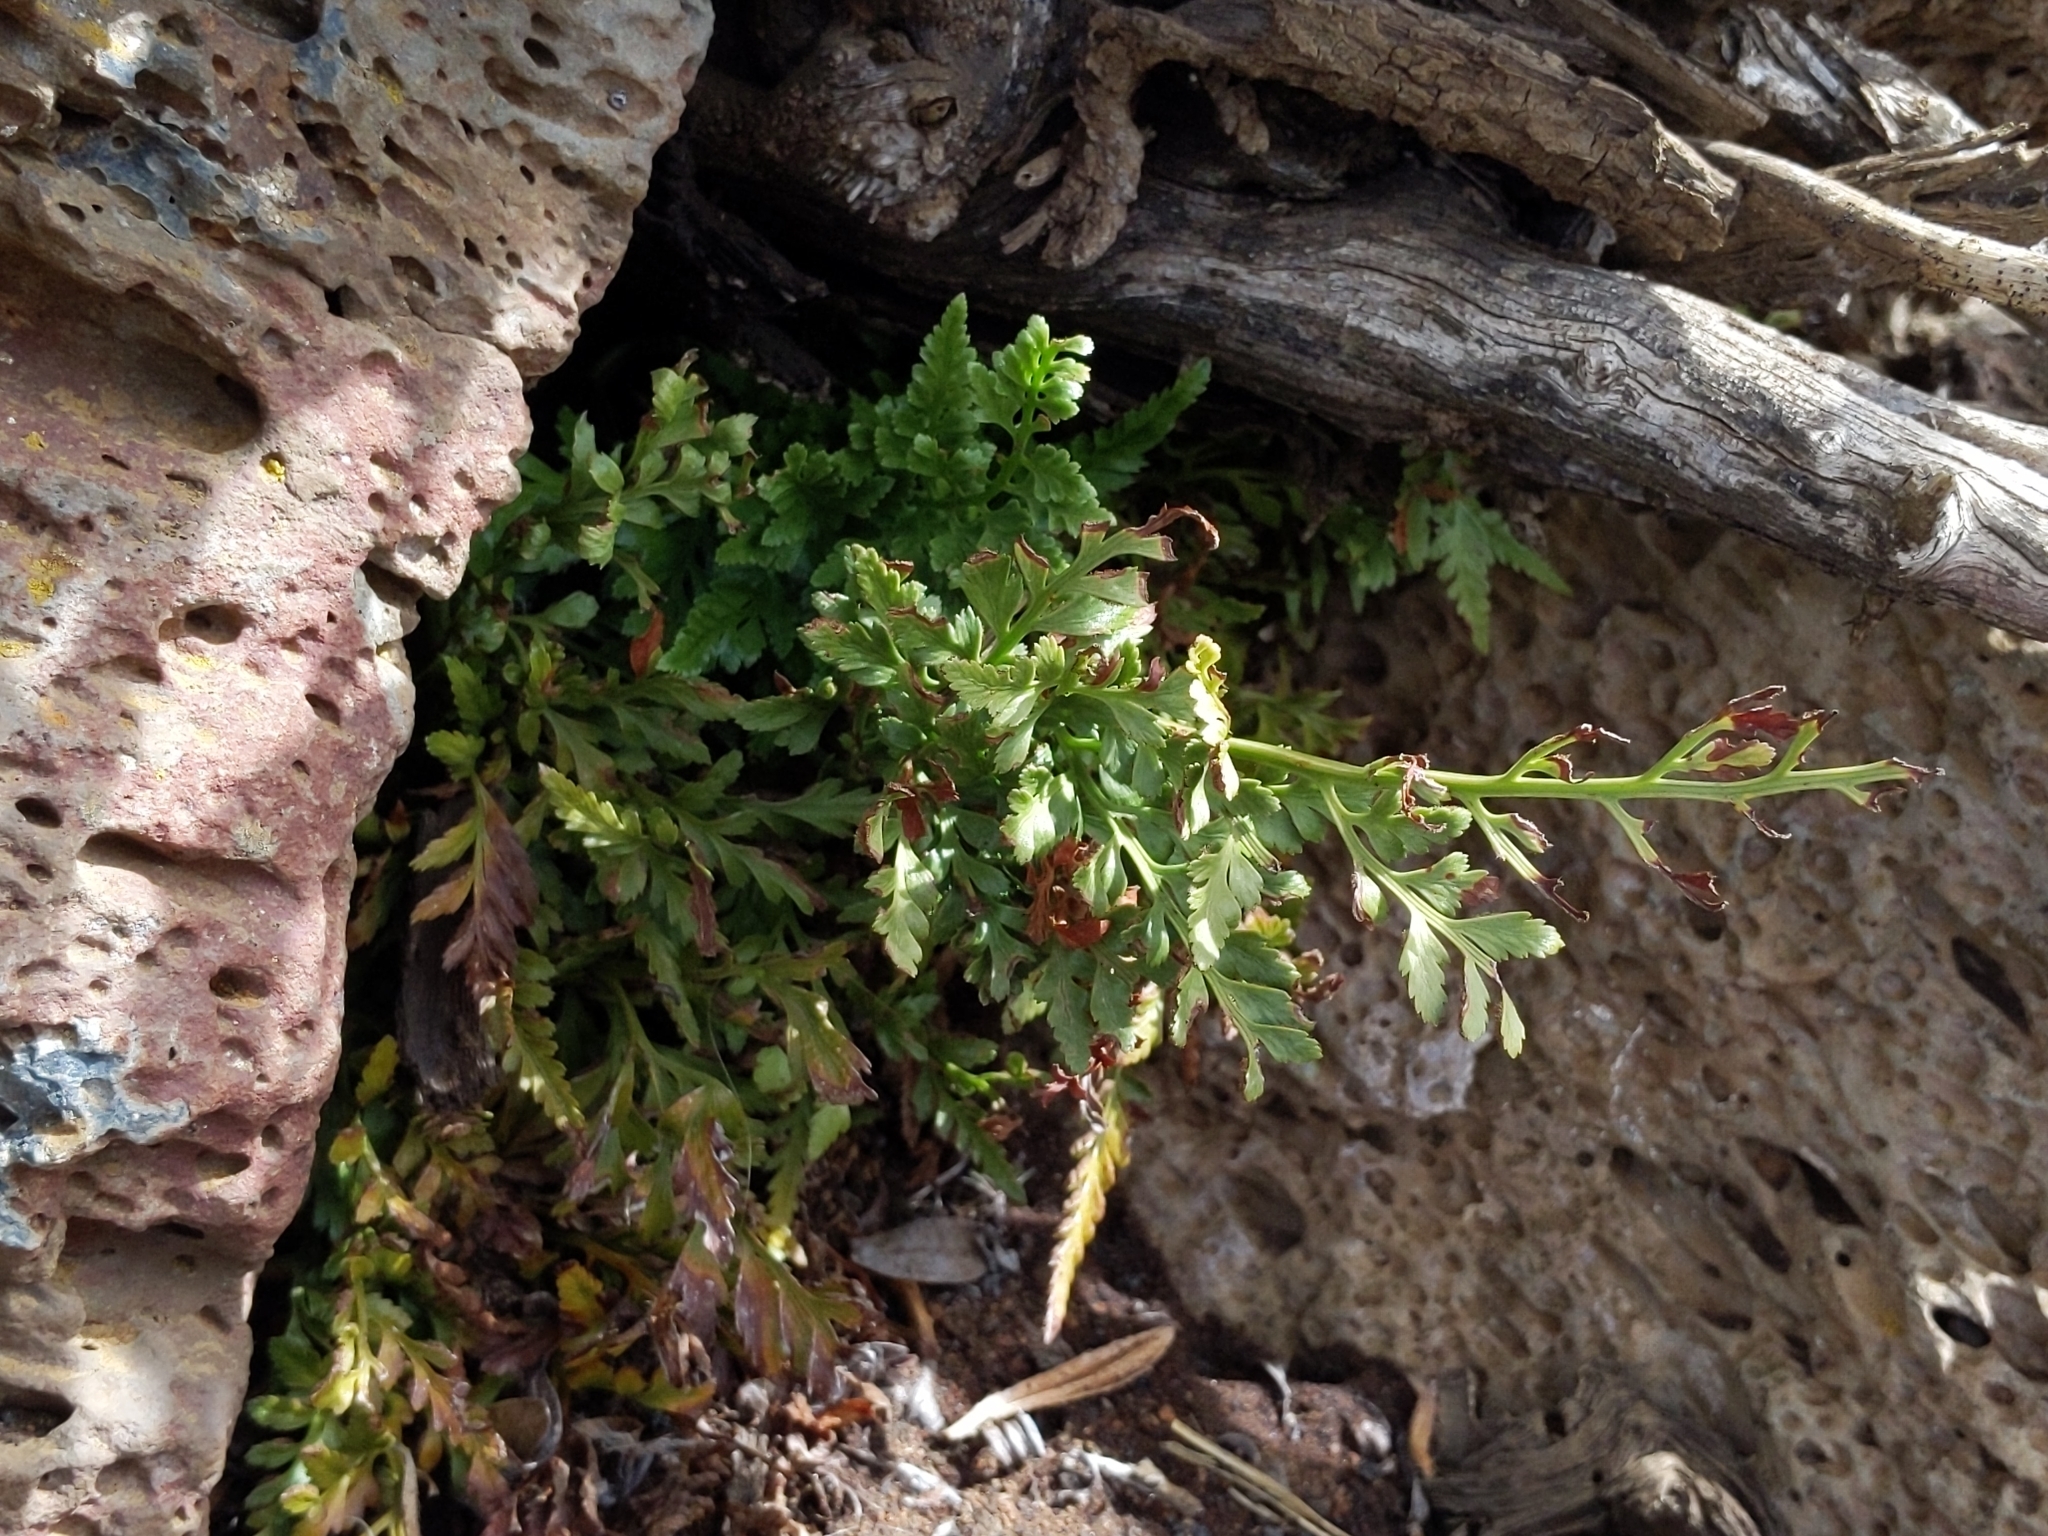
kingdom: Plantae
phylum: Tracheophyta
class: Polypodiopsida
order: Polypodiales
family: Aspleniaceae
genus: Asplenium
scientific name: Asplenium adiantum-nigrum
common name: Black spleenwort
